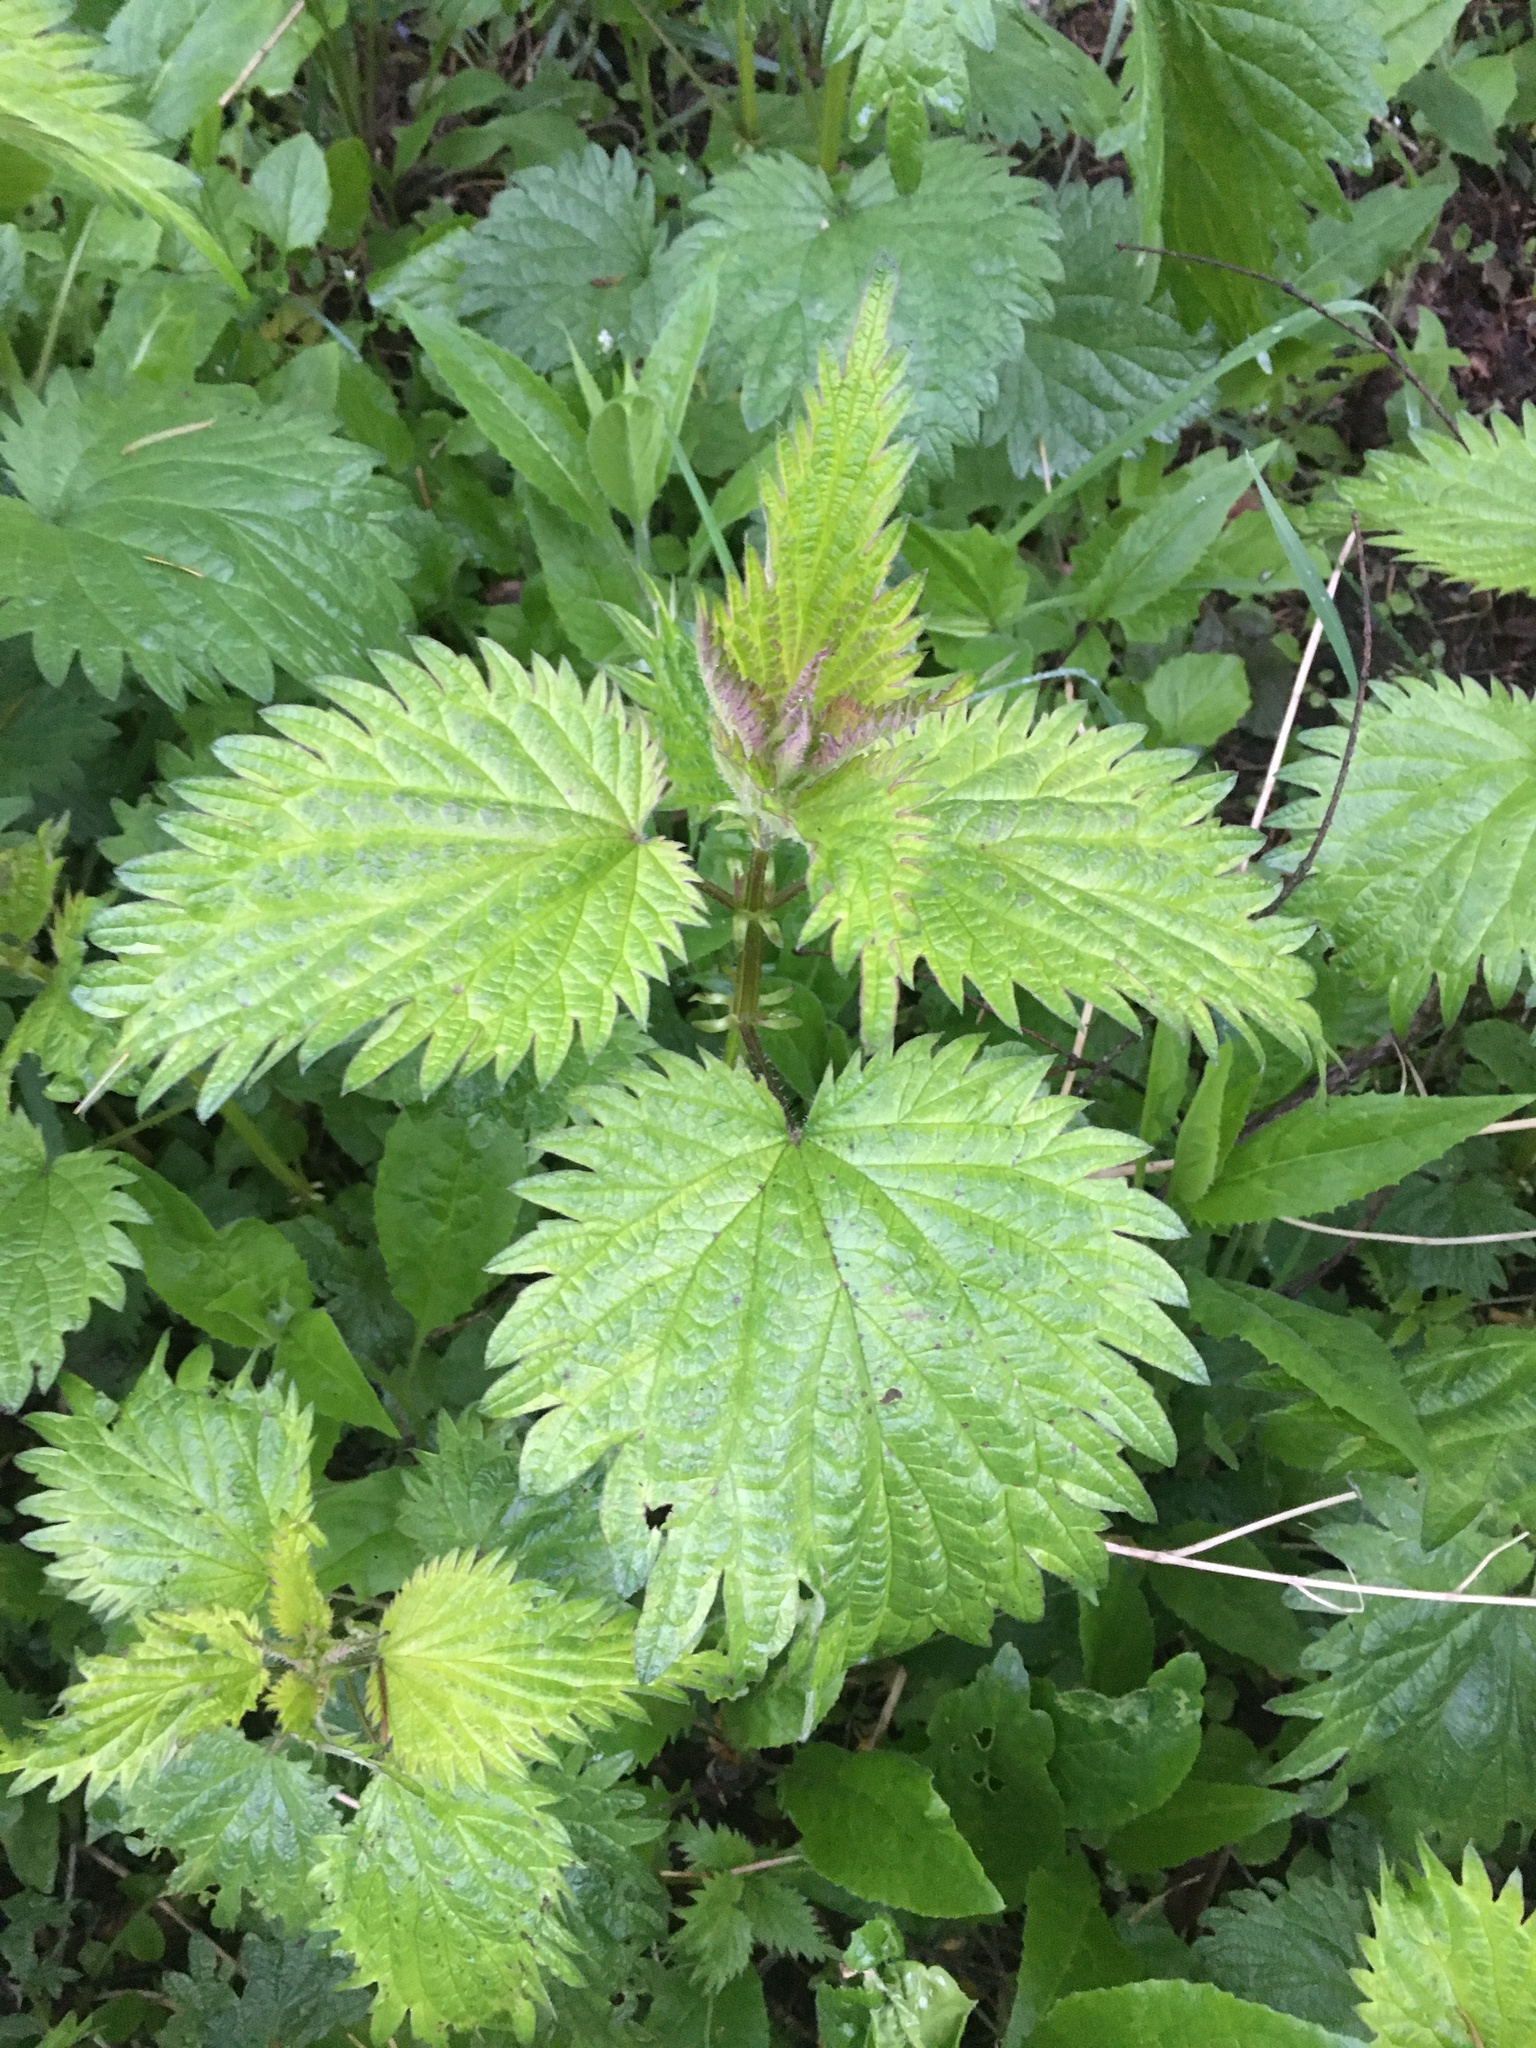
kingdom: Plantae
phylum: Tracheophyta
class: Magnoliopsida
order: Rosales
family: Urticaceae
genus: Urtica
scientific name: Urtica dioica
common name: Common nettle
